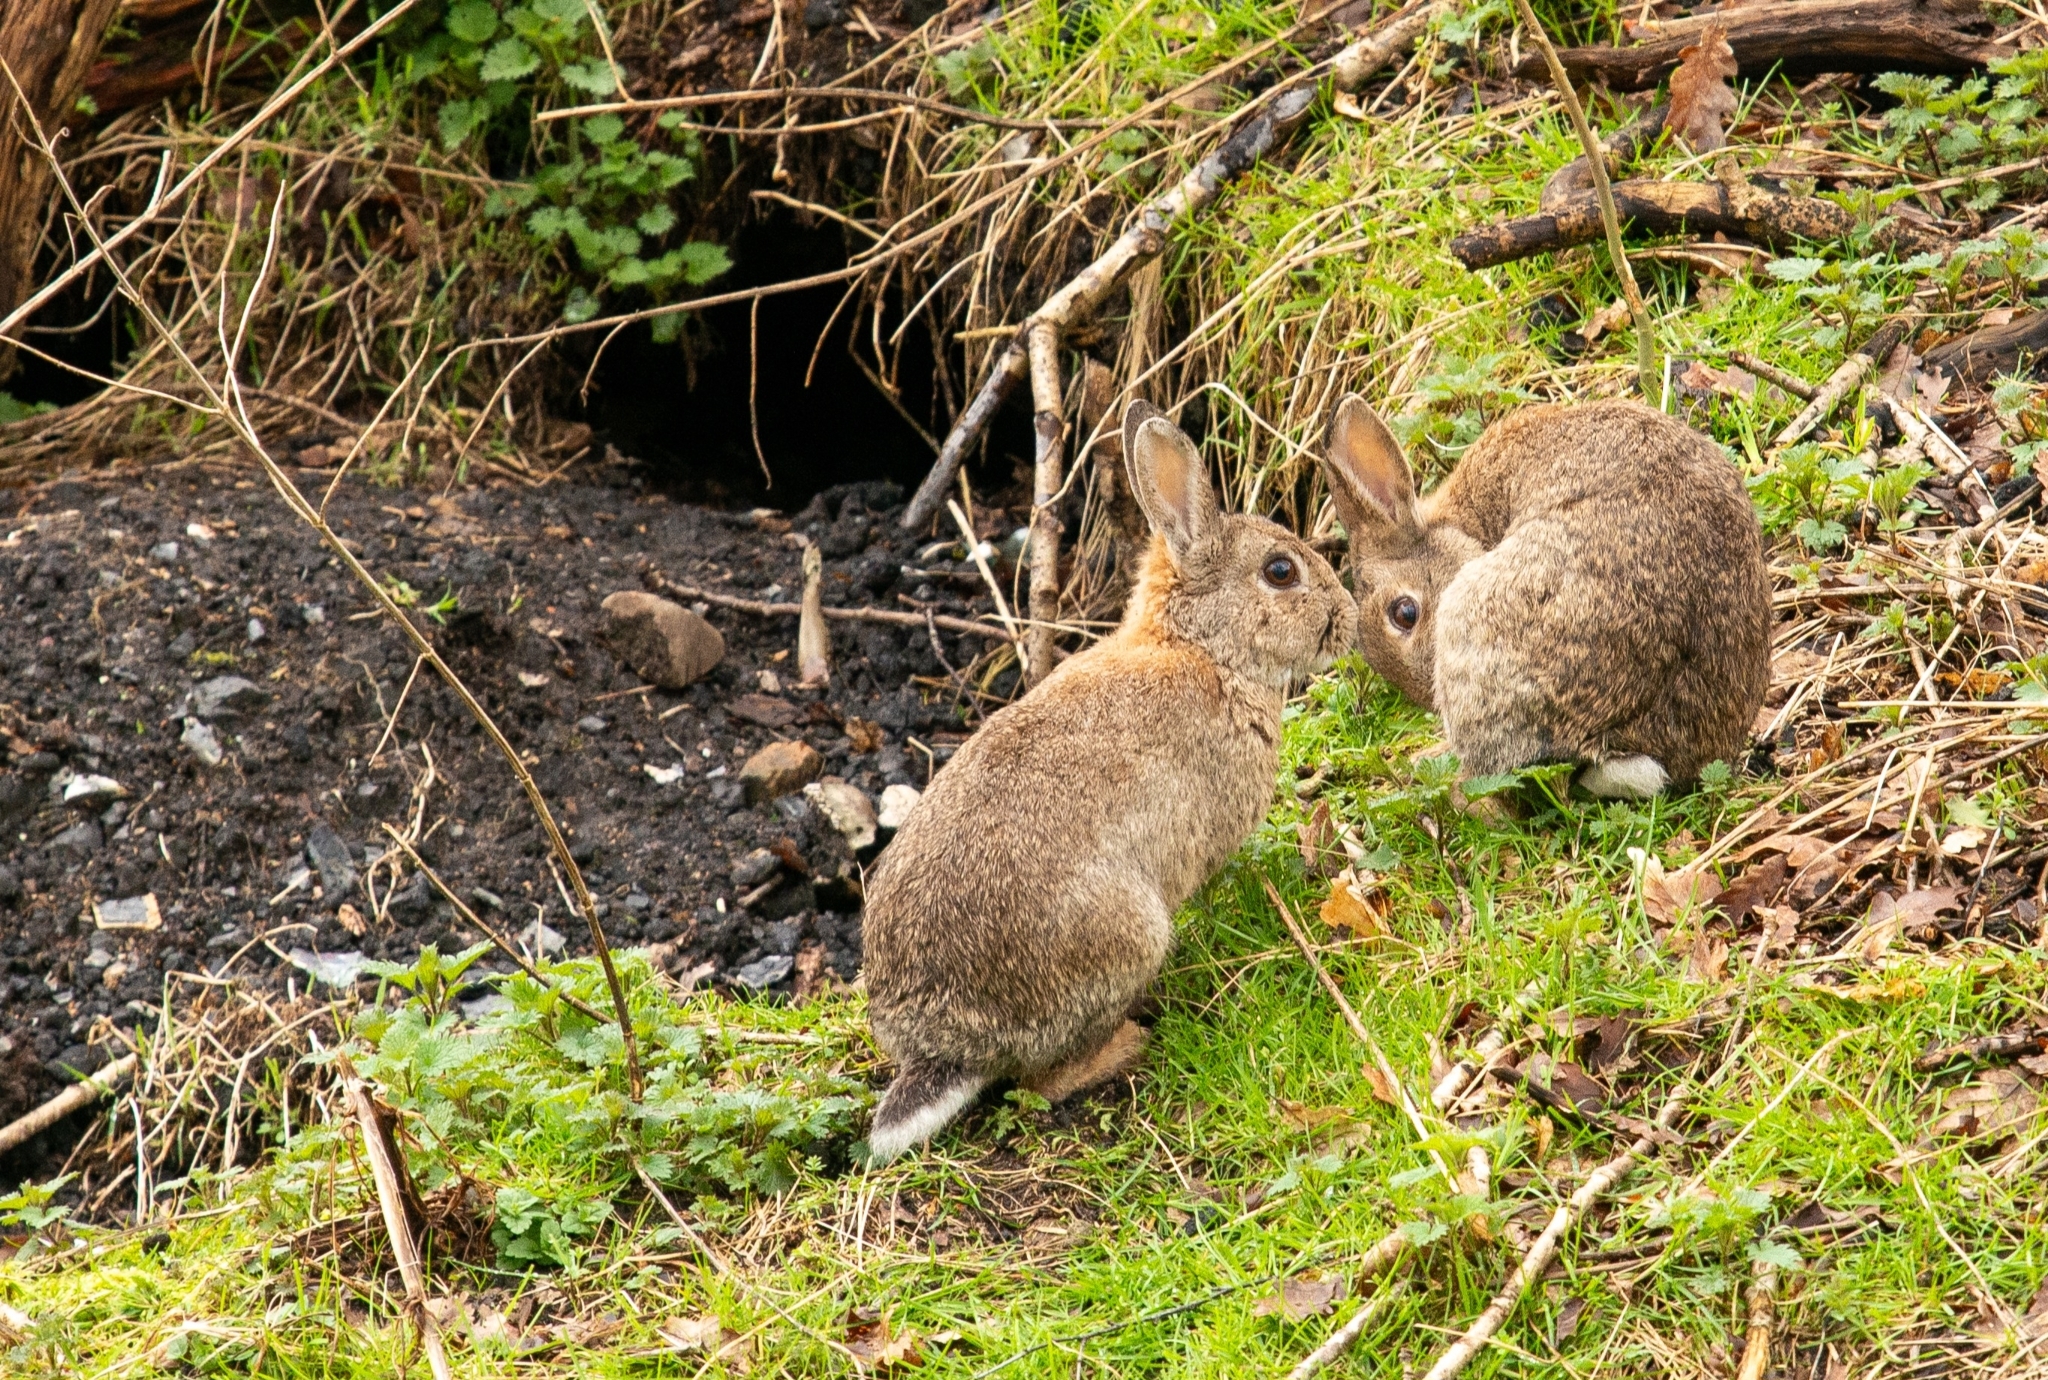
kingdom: Animalia
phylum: Chordata
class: Mammalia
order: Lagomorpha
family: Leporidae
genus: Oryctolagus
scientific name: Oryctolagus cuniculus
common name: European rabbit
